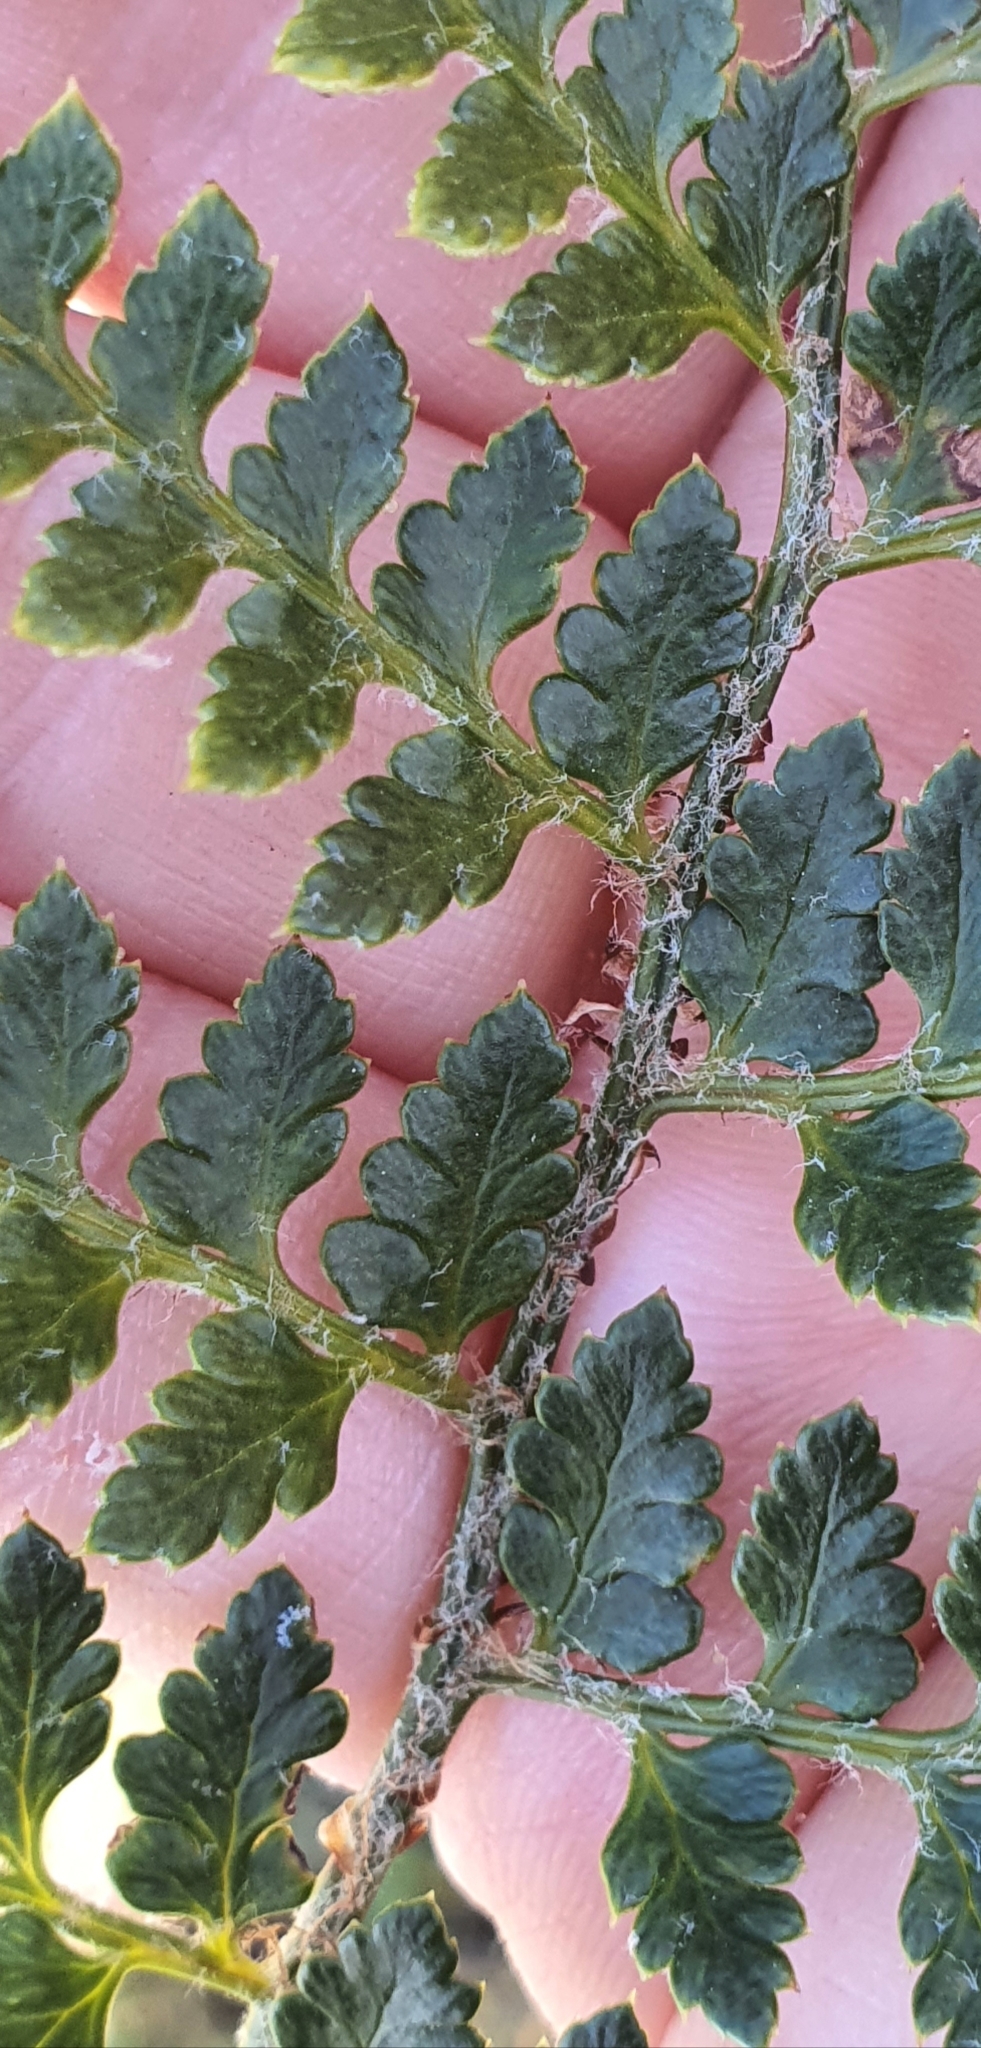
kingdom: Plantae
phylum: Tracheophyta
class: Polypodiopsida
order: Polypodiales
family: Dryopteridaceae
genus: Polystichum
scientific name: Polystichum oculatum
